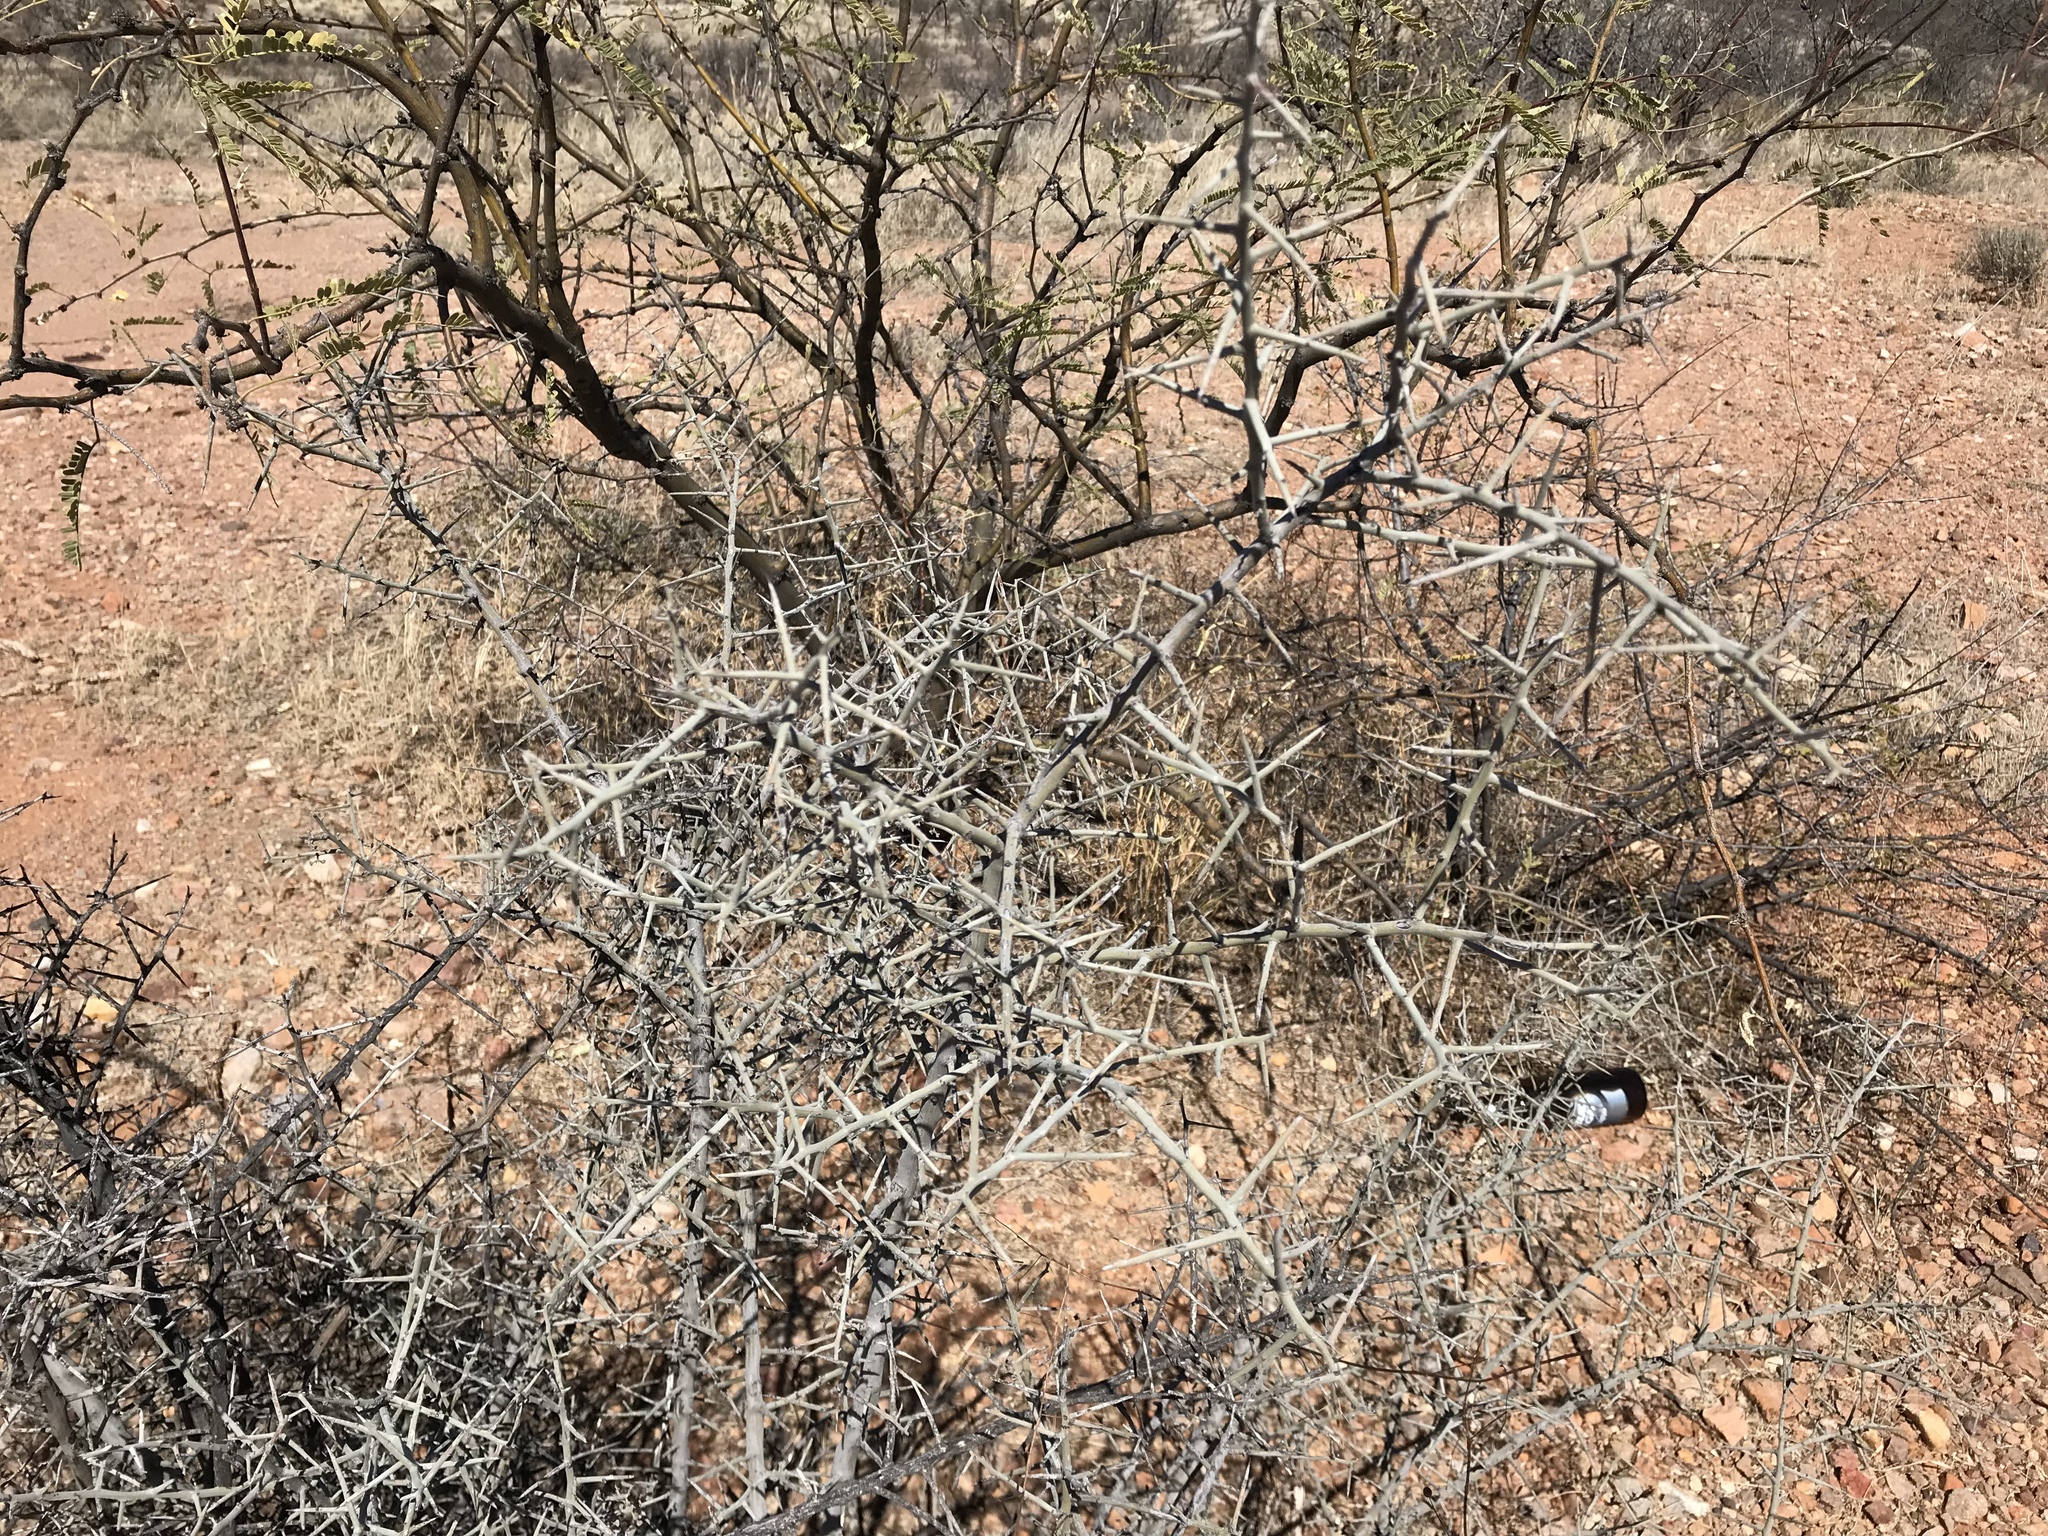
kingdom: Plantae
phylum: Tracheophyta
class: Magnoliopsida
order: Rosales
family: Rhamnaceae
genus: Sarcomphalus
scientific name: Sarcomphalus obtusifolius
